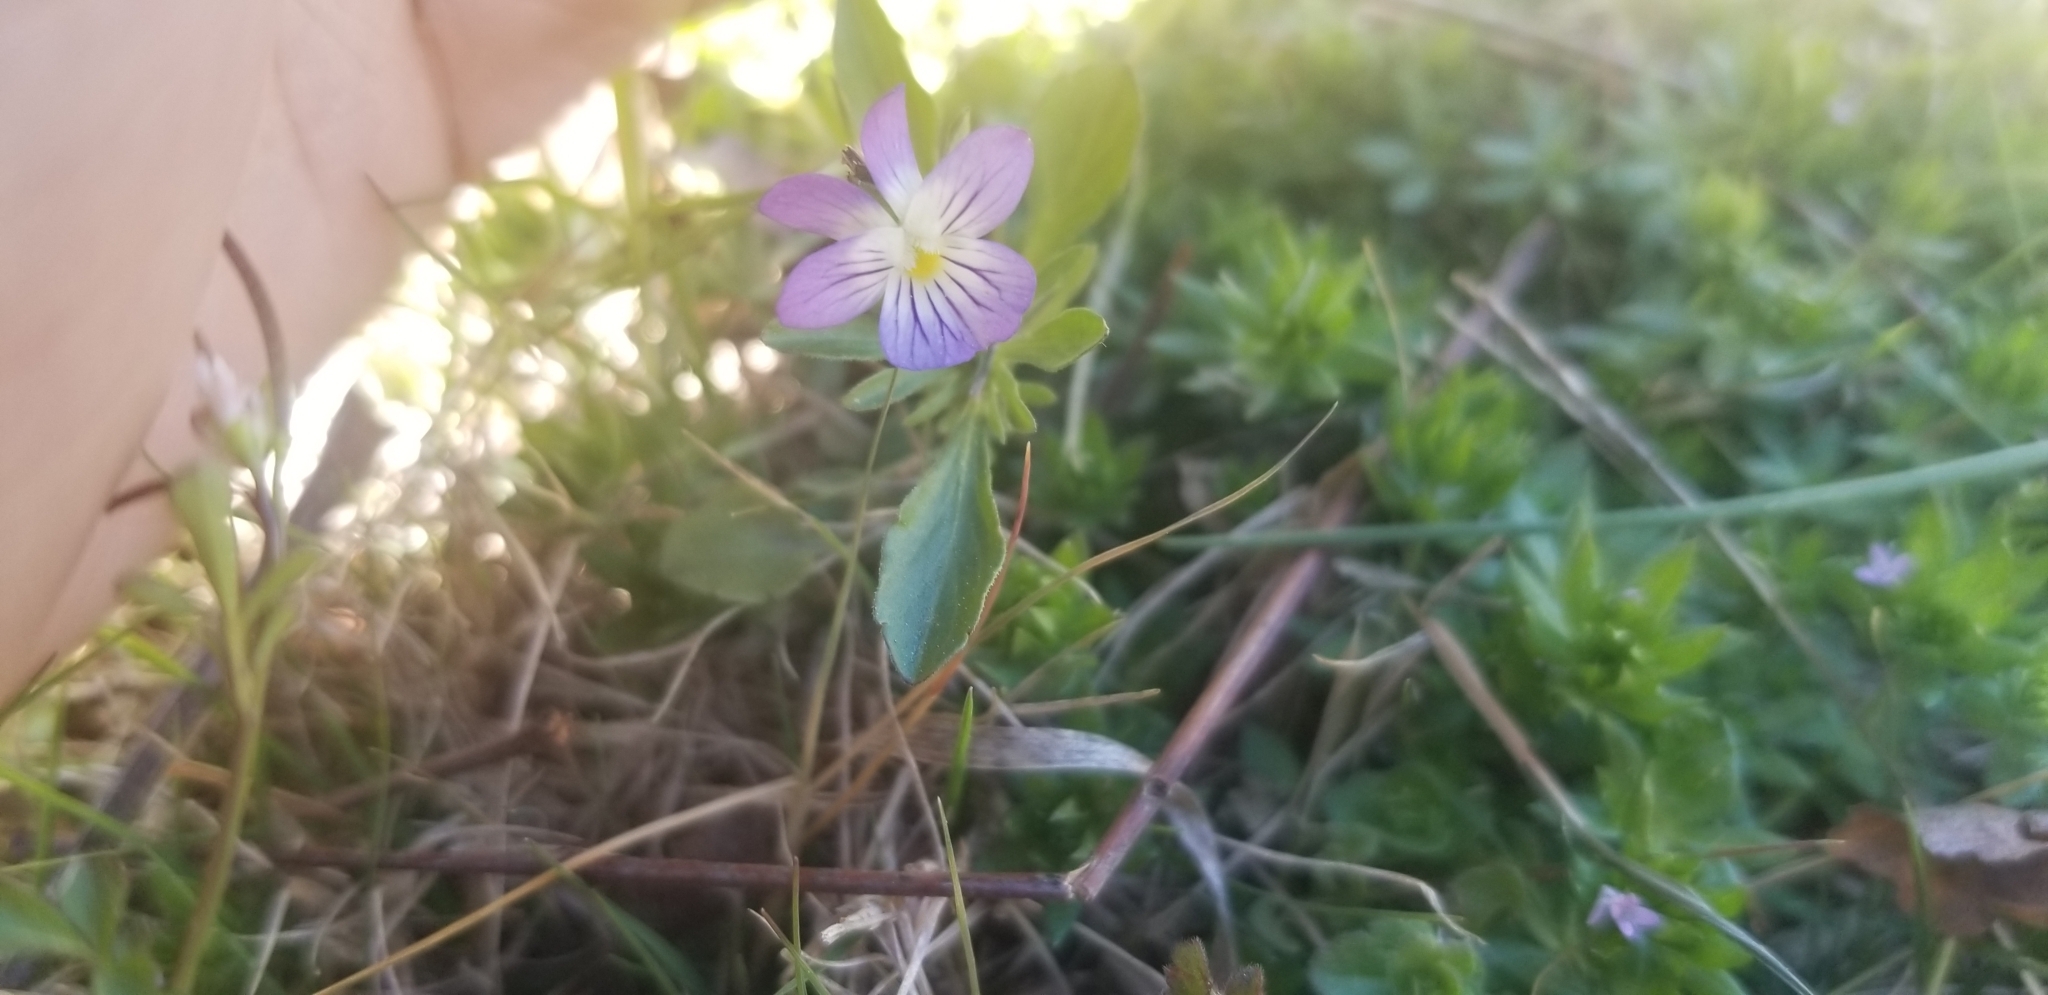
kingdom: Plantae
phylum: Tracheophyta
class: Magnoliopsida
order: Malpighiales
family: Violaceae
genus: Viola
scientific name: Viola rafinesquei
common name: American field pansy
